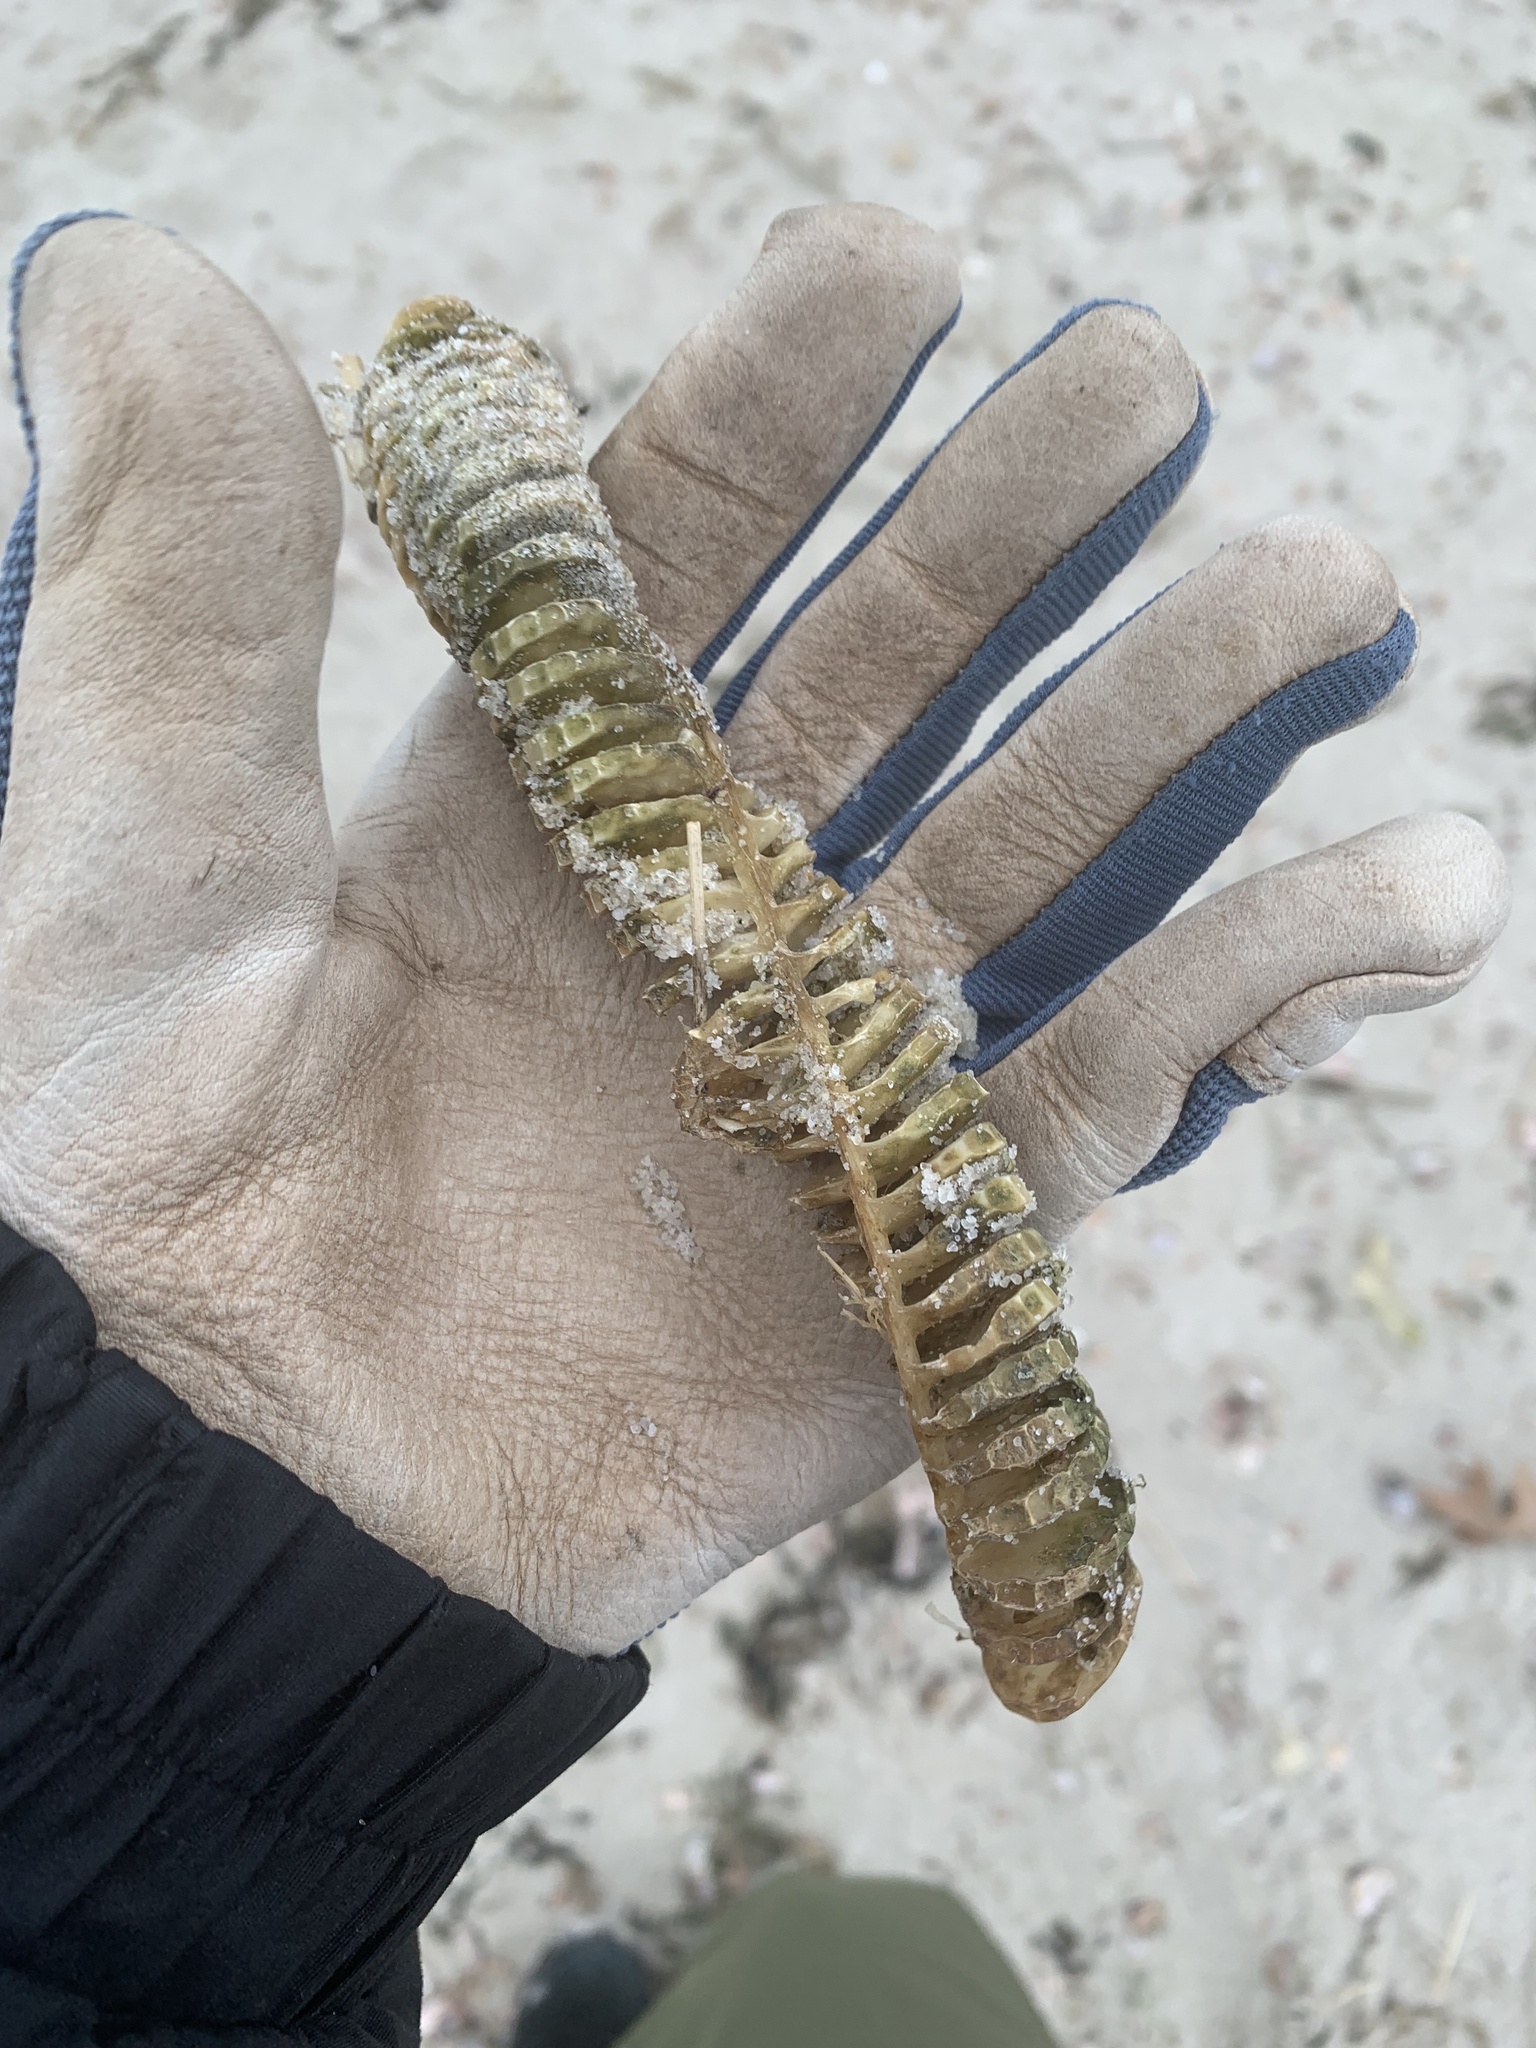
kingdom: Animalia
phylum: Mollusca
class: Gastropoda
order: Neogastropoda
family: Busyconidae
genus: Busycon
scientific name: Busycon carica
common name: Knobbed whelk
